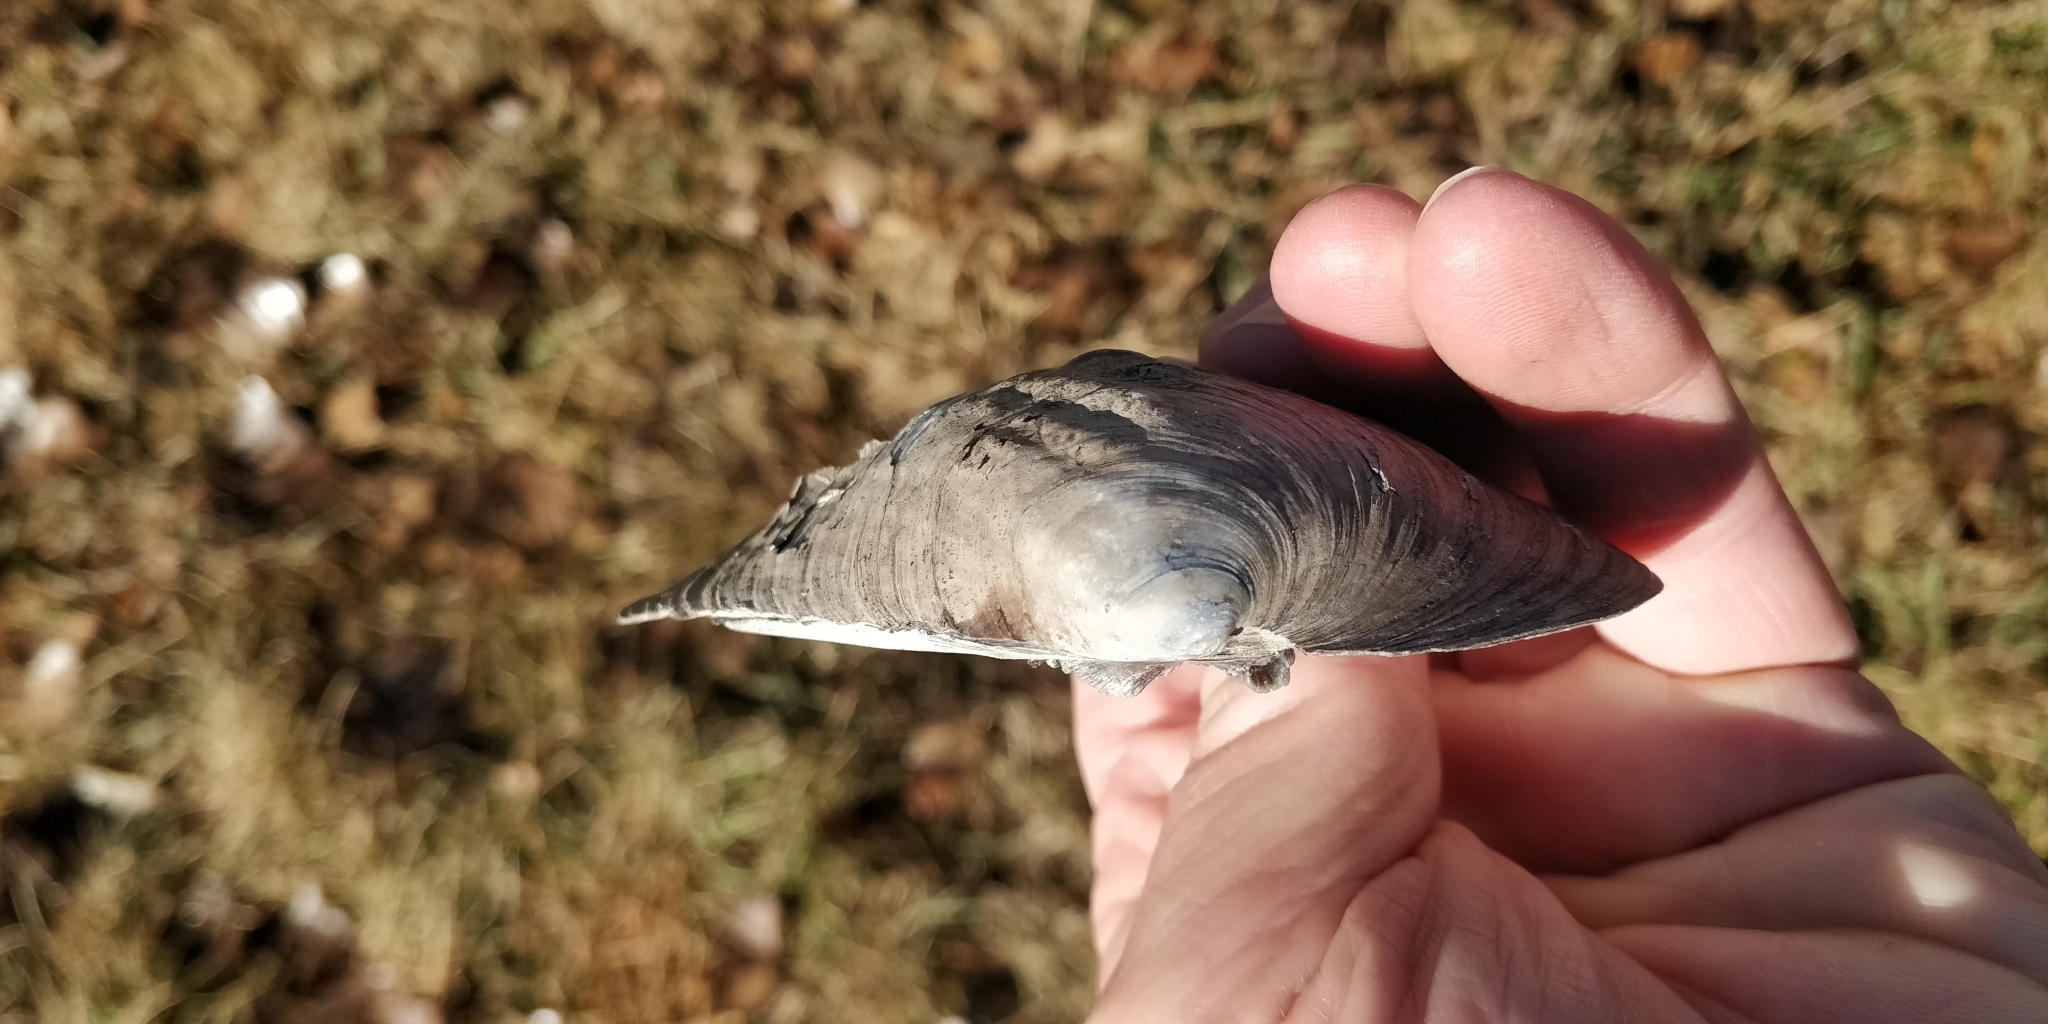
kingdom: Animalia
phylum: Mollusca
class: Bivalvia
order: Unionida
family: Unionidae
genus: Amblema
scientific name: Amblema plicata
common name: Threeridge
